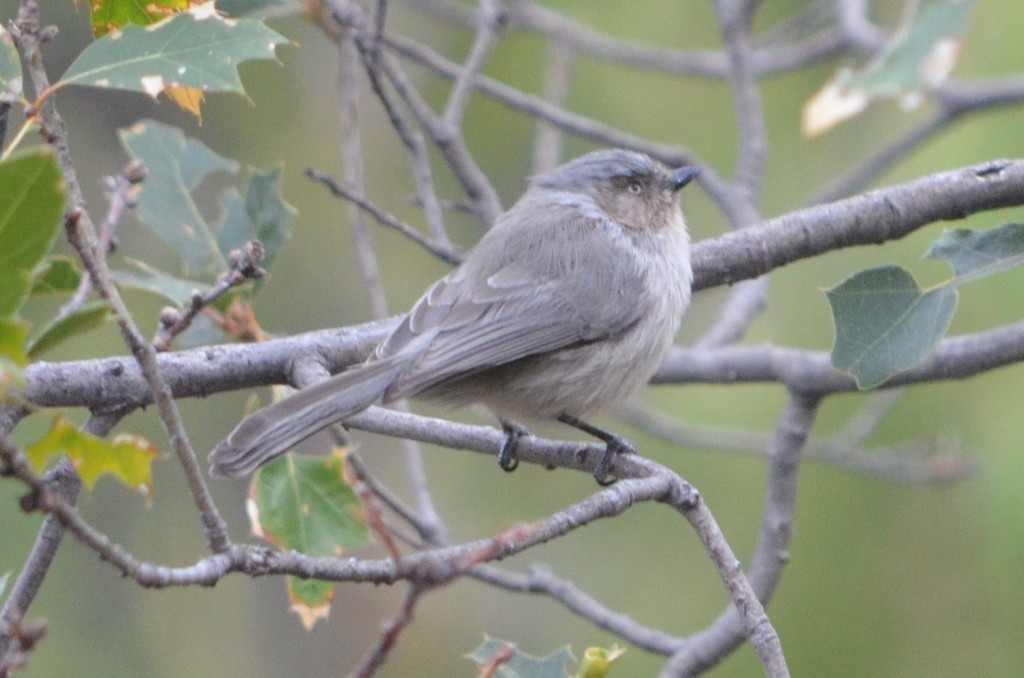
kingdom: Animalia
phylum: Chordata
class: Aves
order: Passeriformes
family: Aegithalidae
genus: Psaltriparus
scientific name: Psaltriparus minimus
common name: American bushtit
